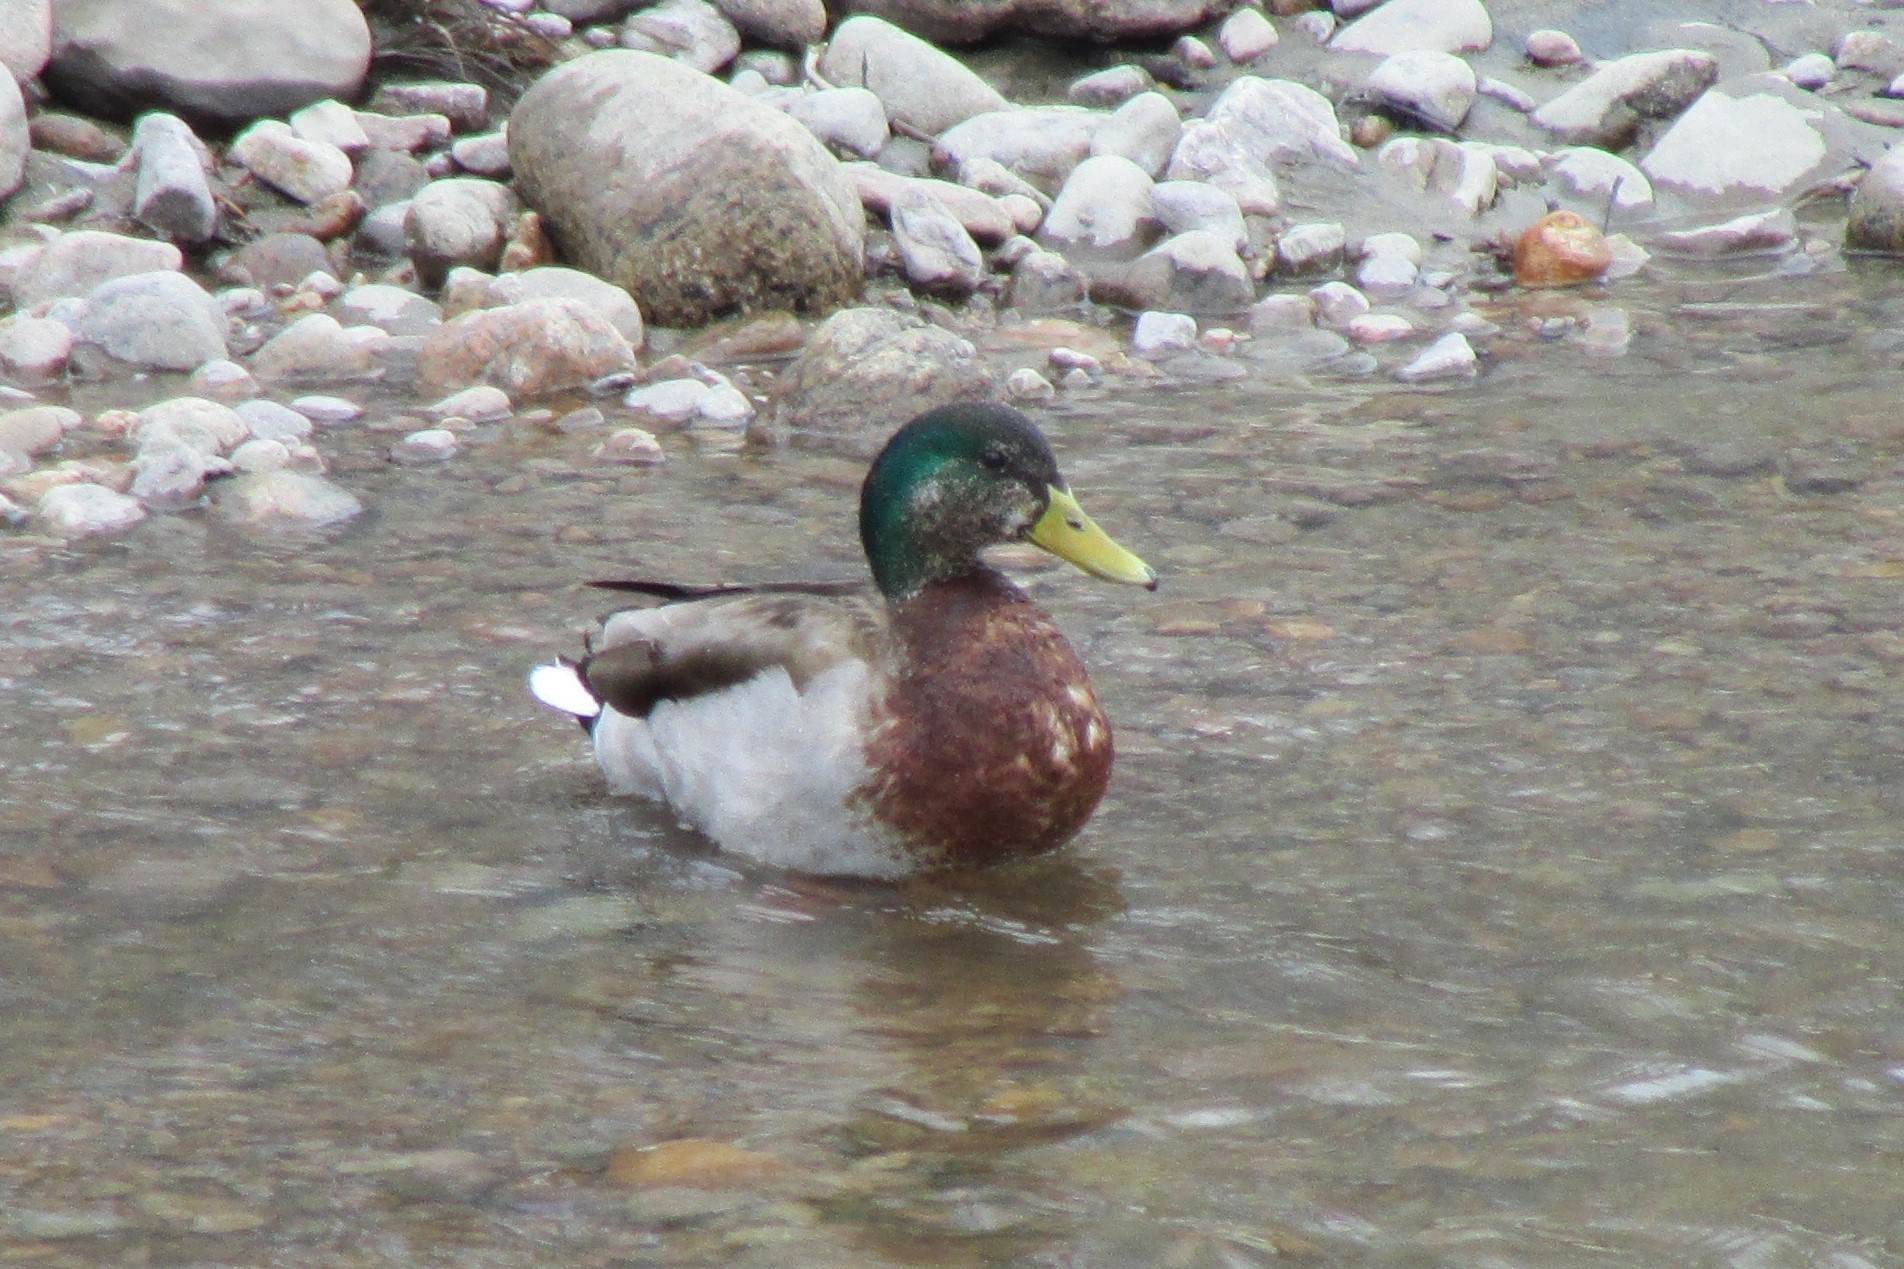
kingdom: Animalia
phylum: Chordata
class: Aves
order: Anseriformes
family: Anatidae
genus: Anas
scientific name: Anas platyrhynchos
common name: Mallard
